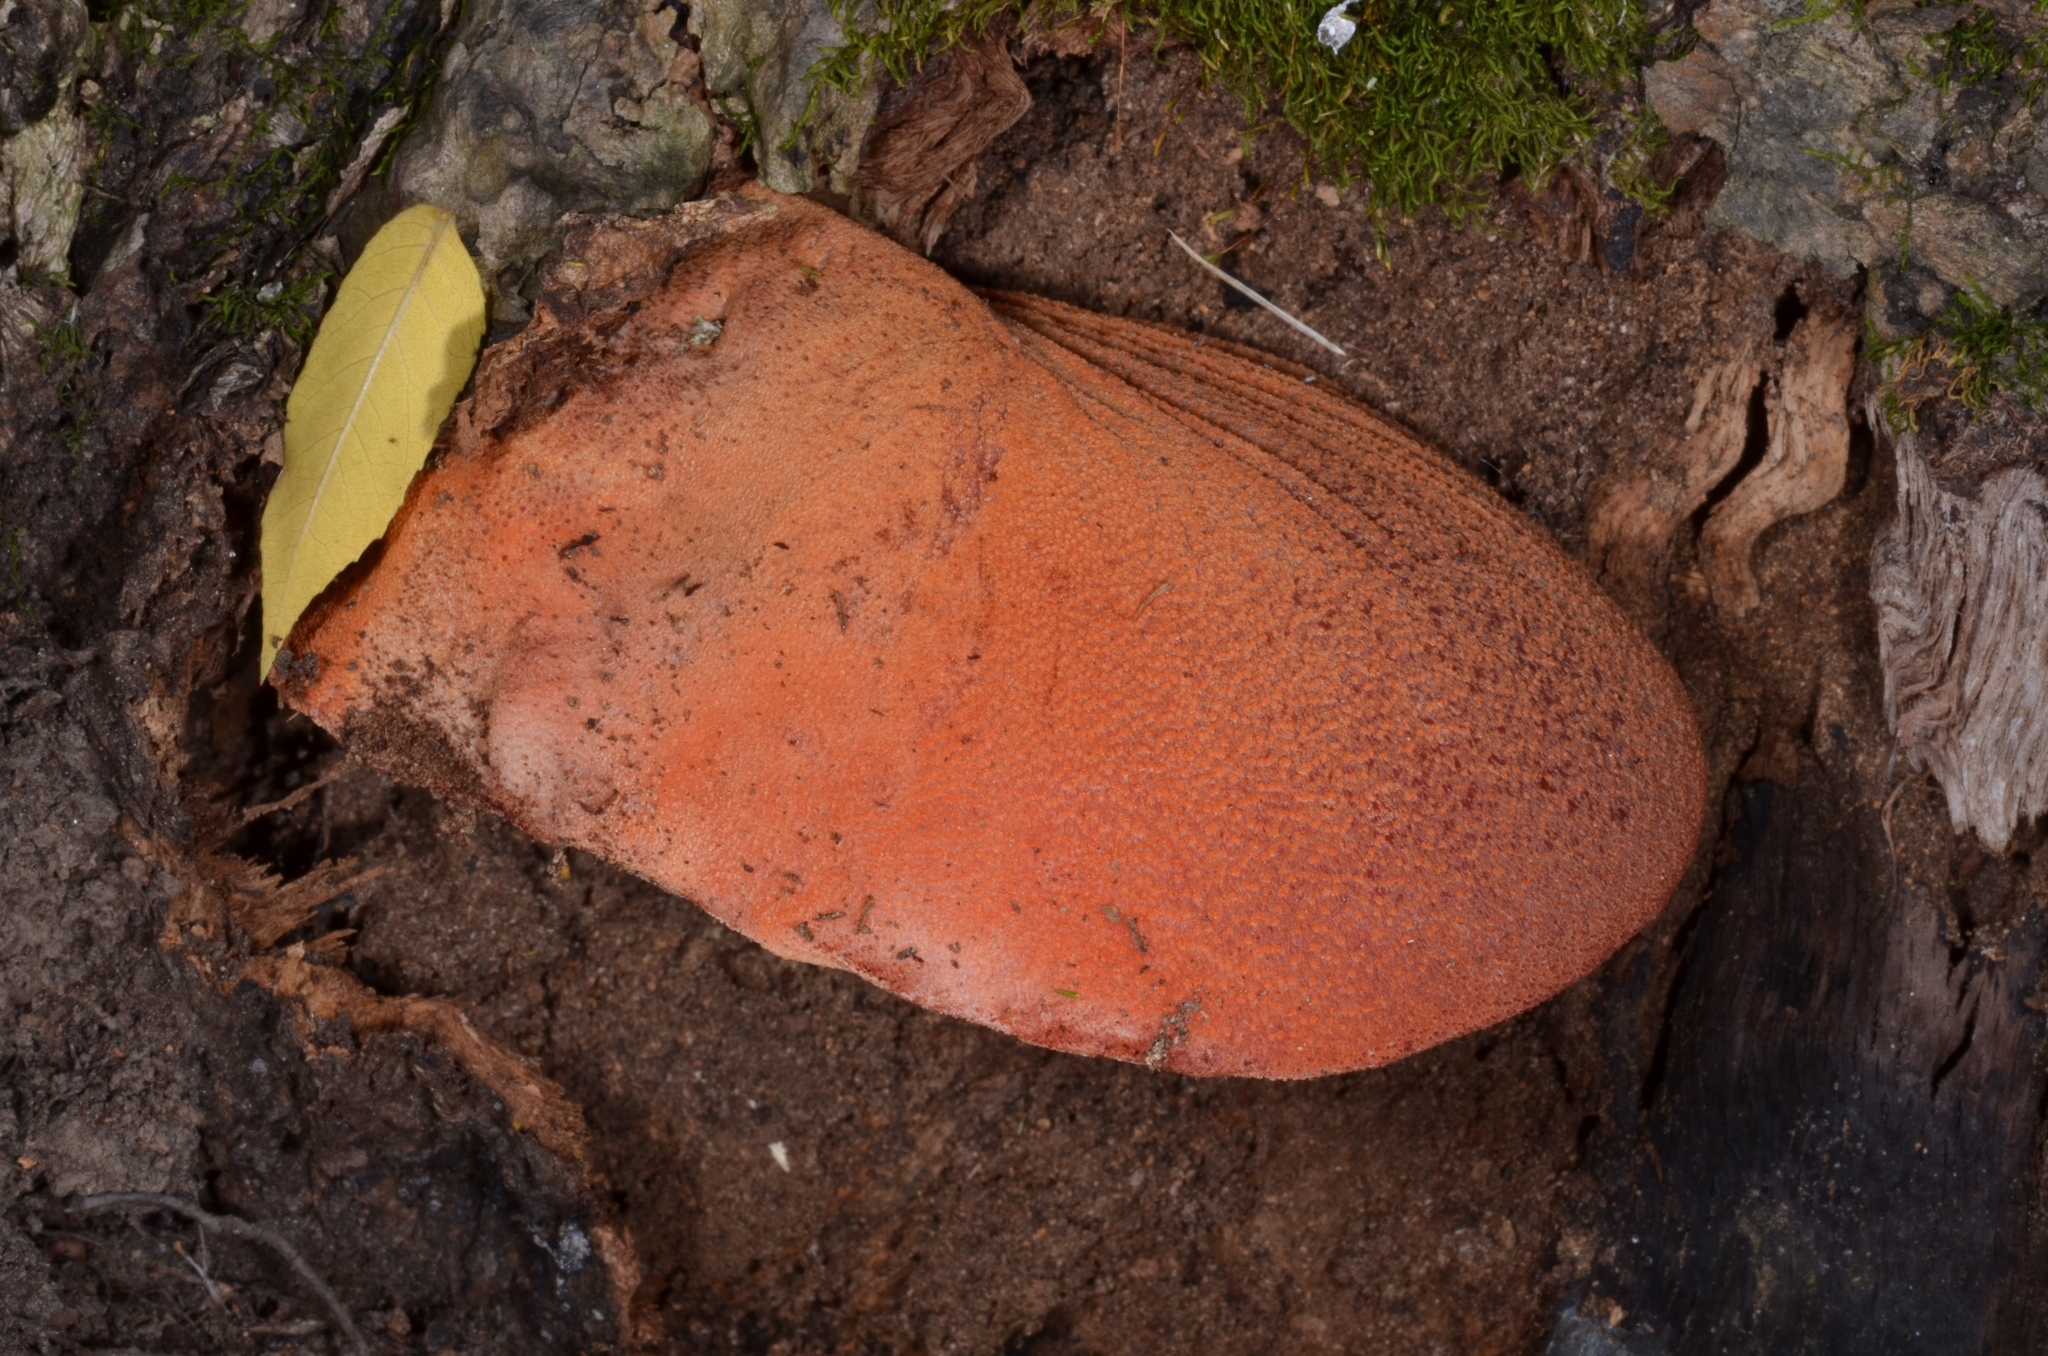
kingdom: Fungi
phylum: Basidiomycota
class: Agaricomycetes
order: Agaricales
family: Fistulinaceae
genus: Fistulina
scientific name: Fistulina hepatica
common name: Beef-steak fungus
